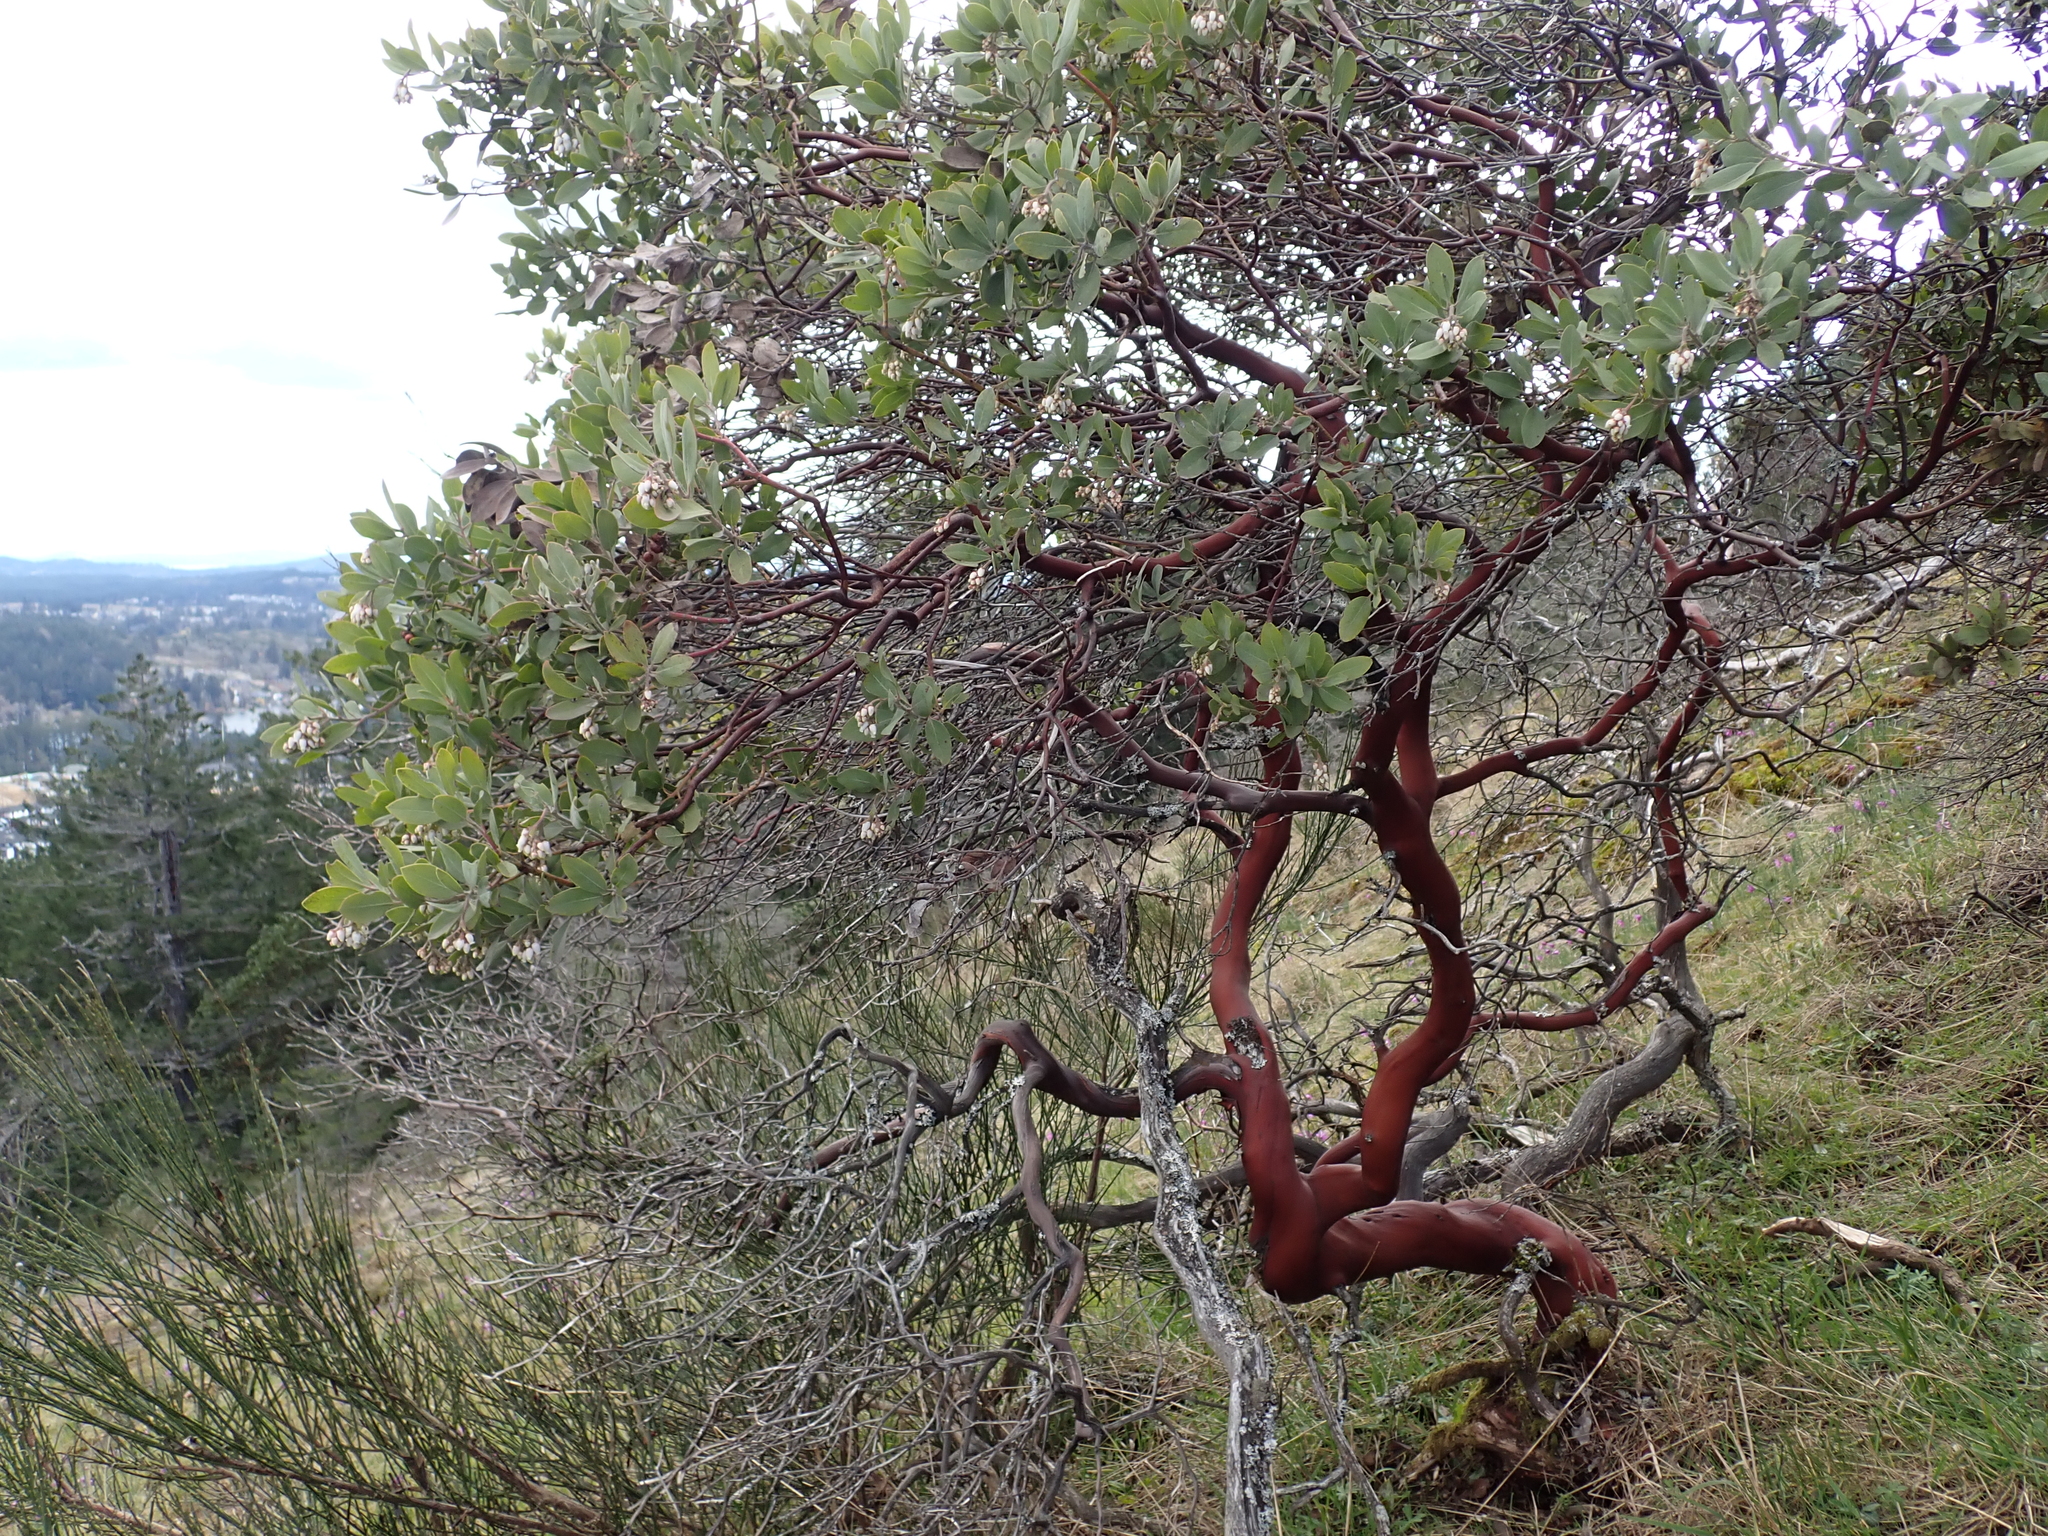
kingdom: Plantae
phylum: Tracheophyta
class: Magnoliopsida
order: Ericales
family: Ericaceae
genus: Arctostaphylos
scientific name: Arctostaphylos columbiana
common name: Bristly bearberry
